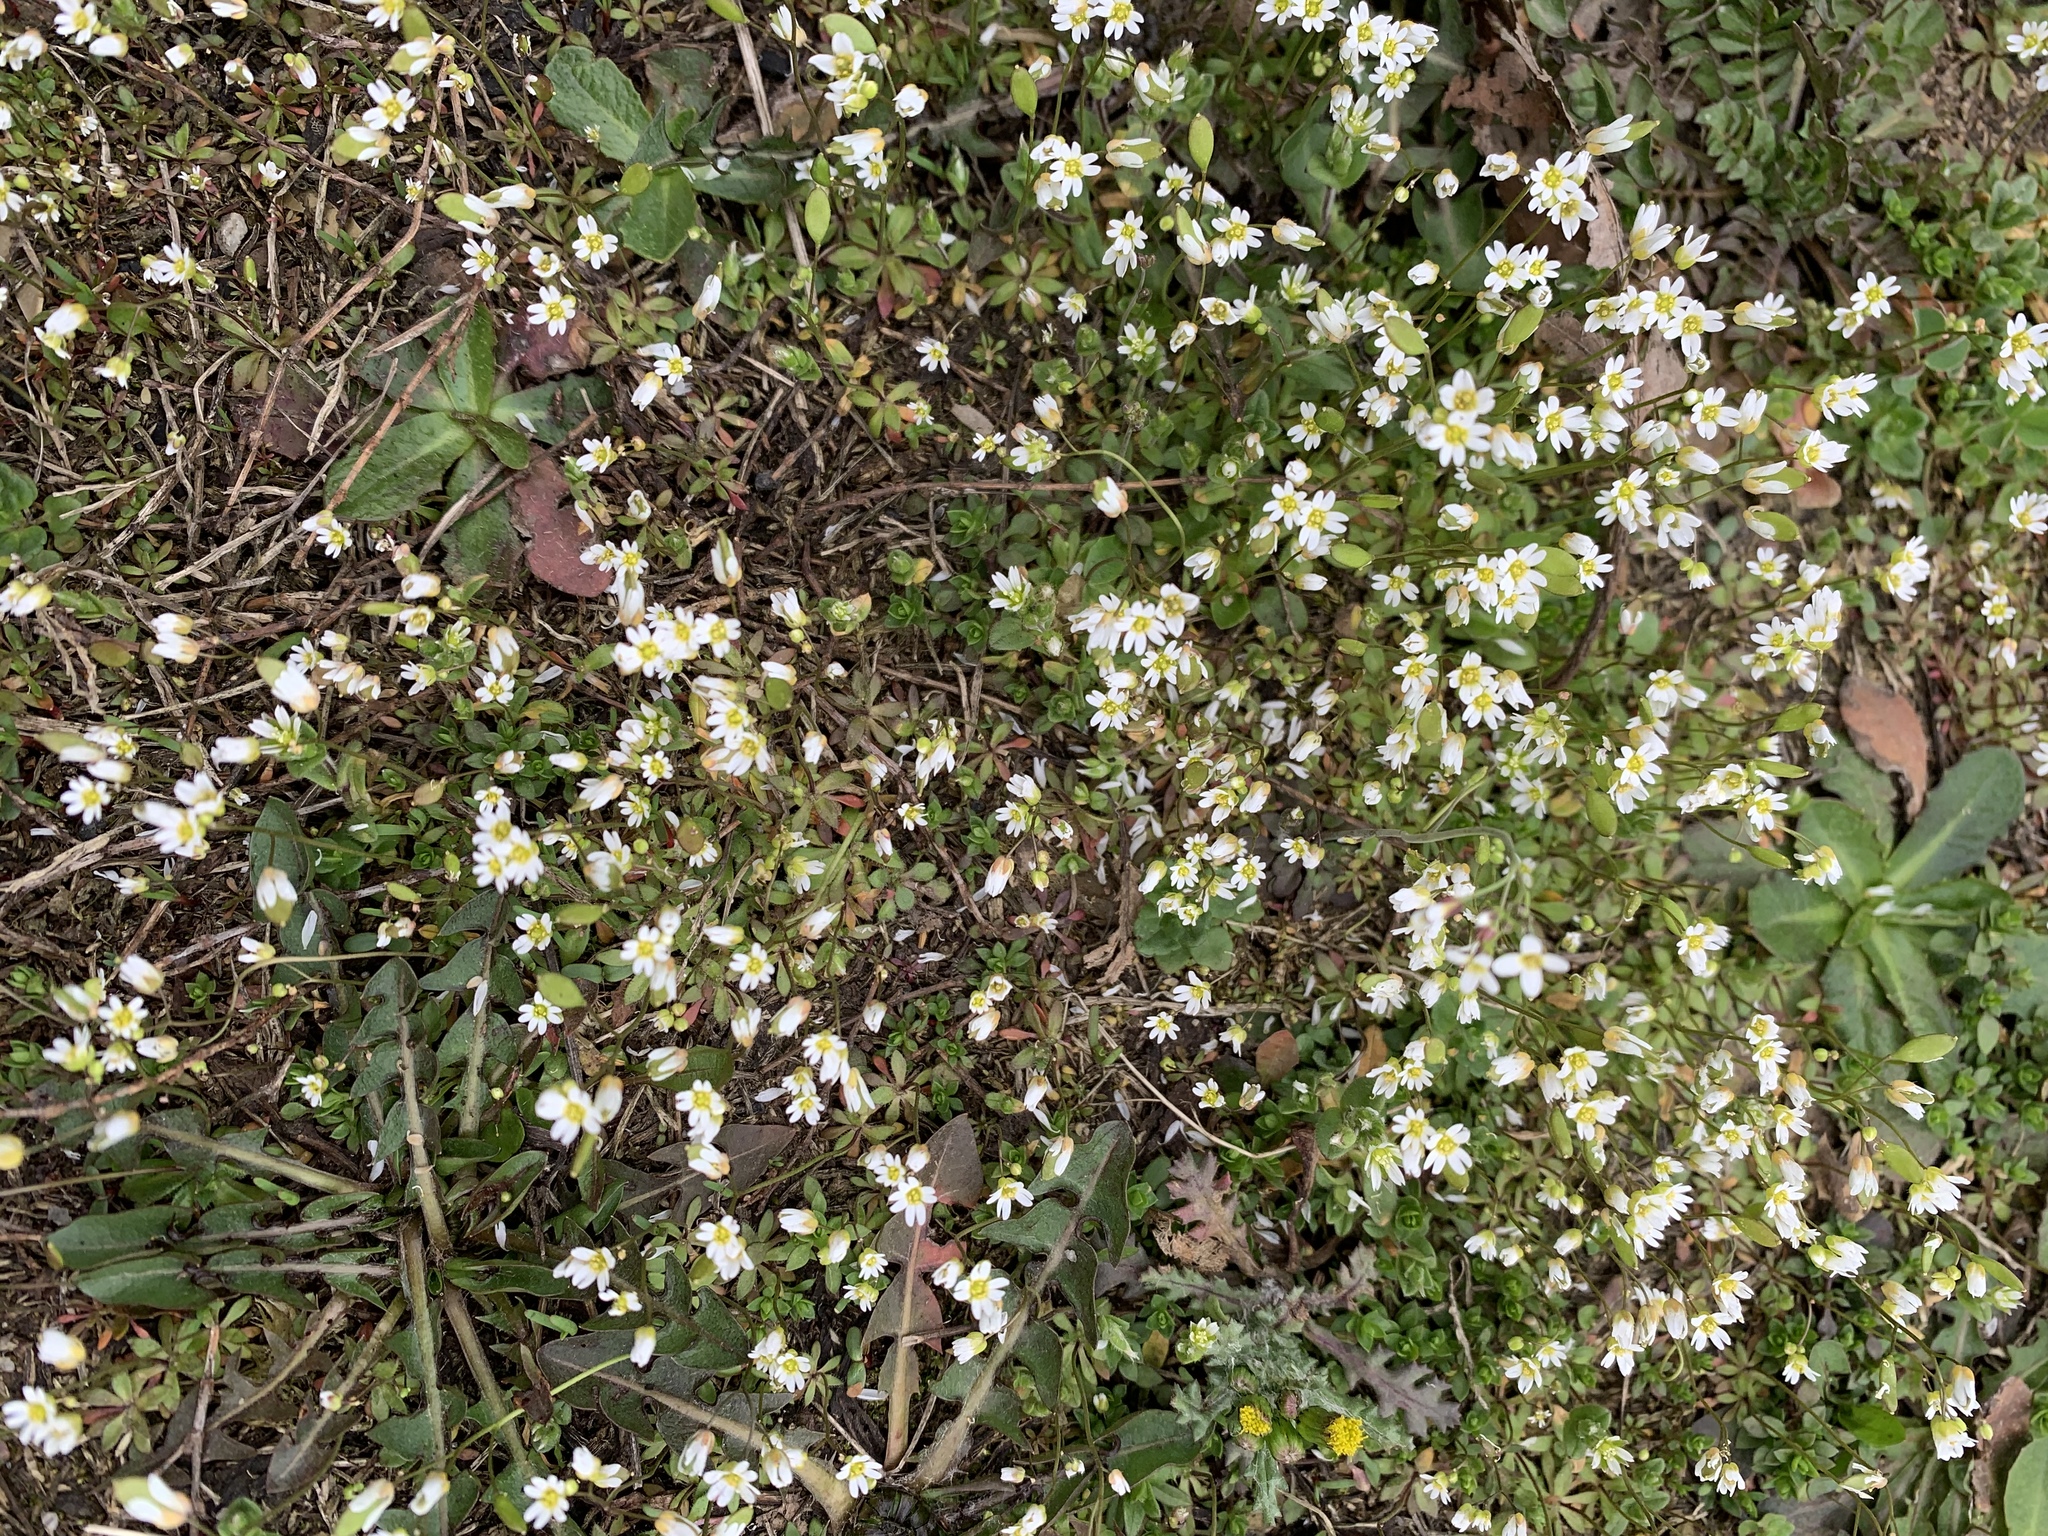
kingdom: Plantae
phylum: Tracheophyta
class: Magnoliopsida
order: Brassicales
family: Brassicaceae
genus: Draba
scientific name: Draba verna
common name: Spring draba
